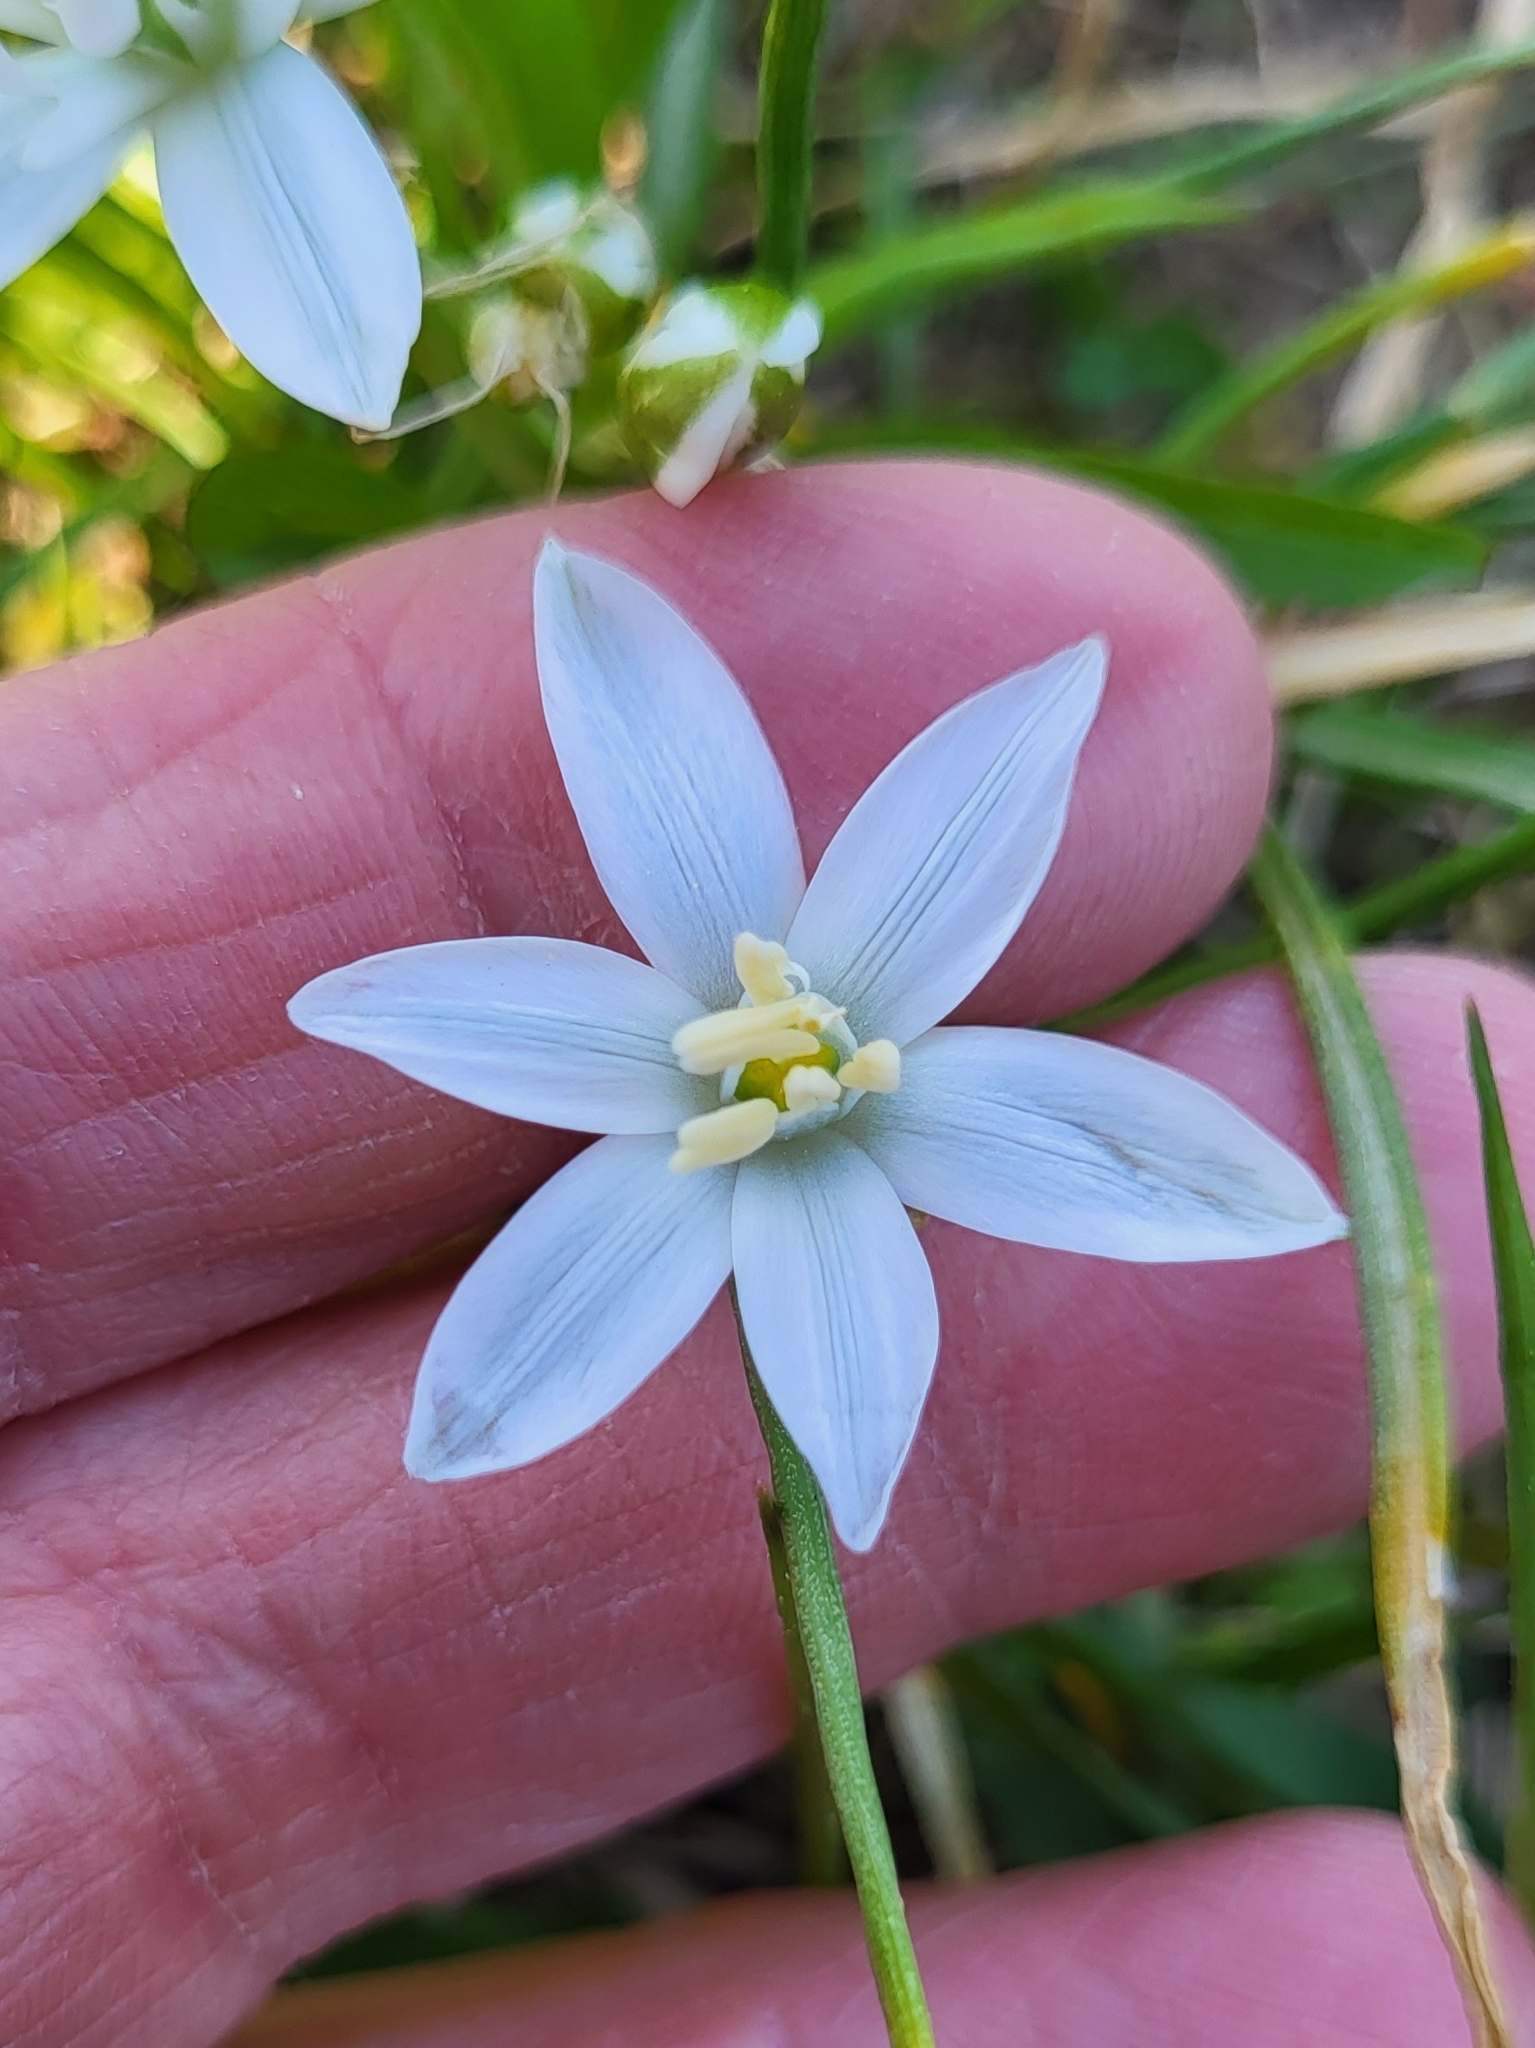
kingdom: Plantae
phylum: Tracheophyta
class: Liliopsida
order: Asparagales
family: Asparagaceae
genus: Ornithogalum
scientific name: Ornithogalum umbellatum
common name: Garden star-of-bethlehem
